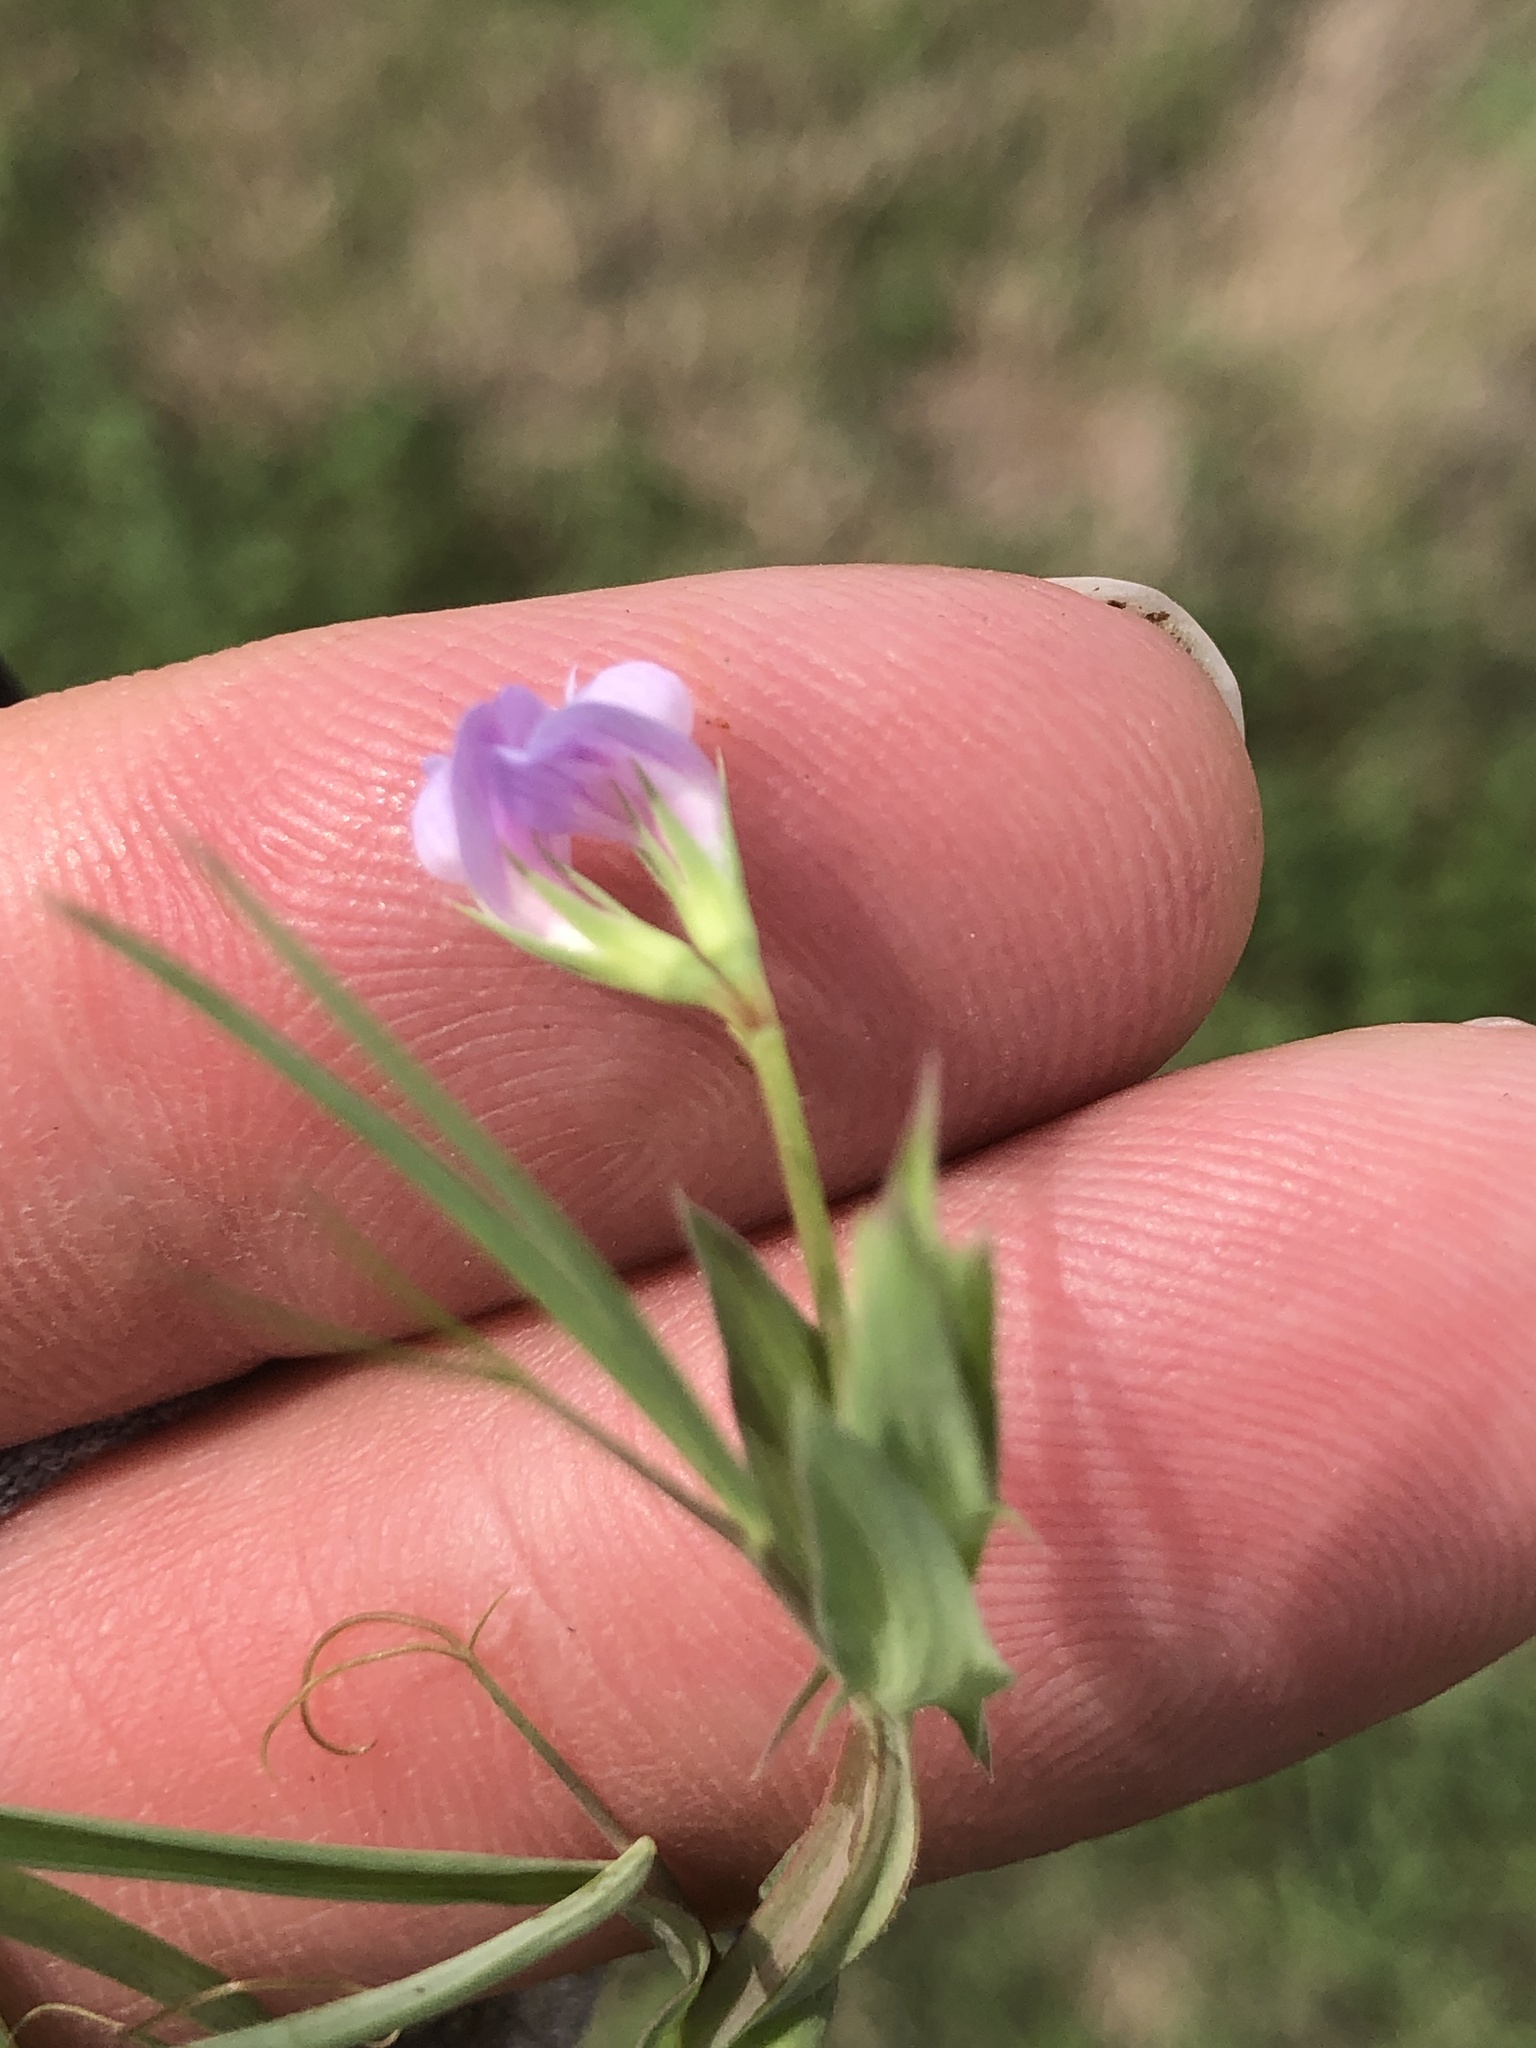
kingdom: Plantae
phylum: Tracheophyta
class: Magnoliopsida
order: Fabales
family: Fabaceae
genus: Lathyrus
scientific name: Lathyrus pusillus
